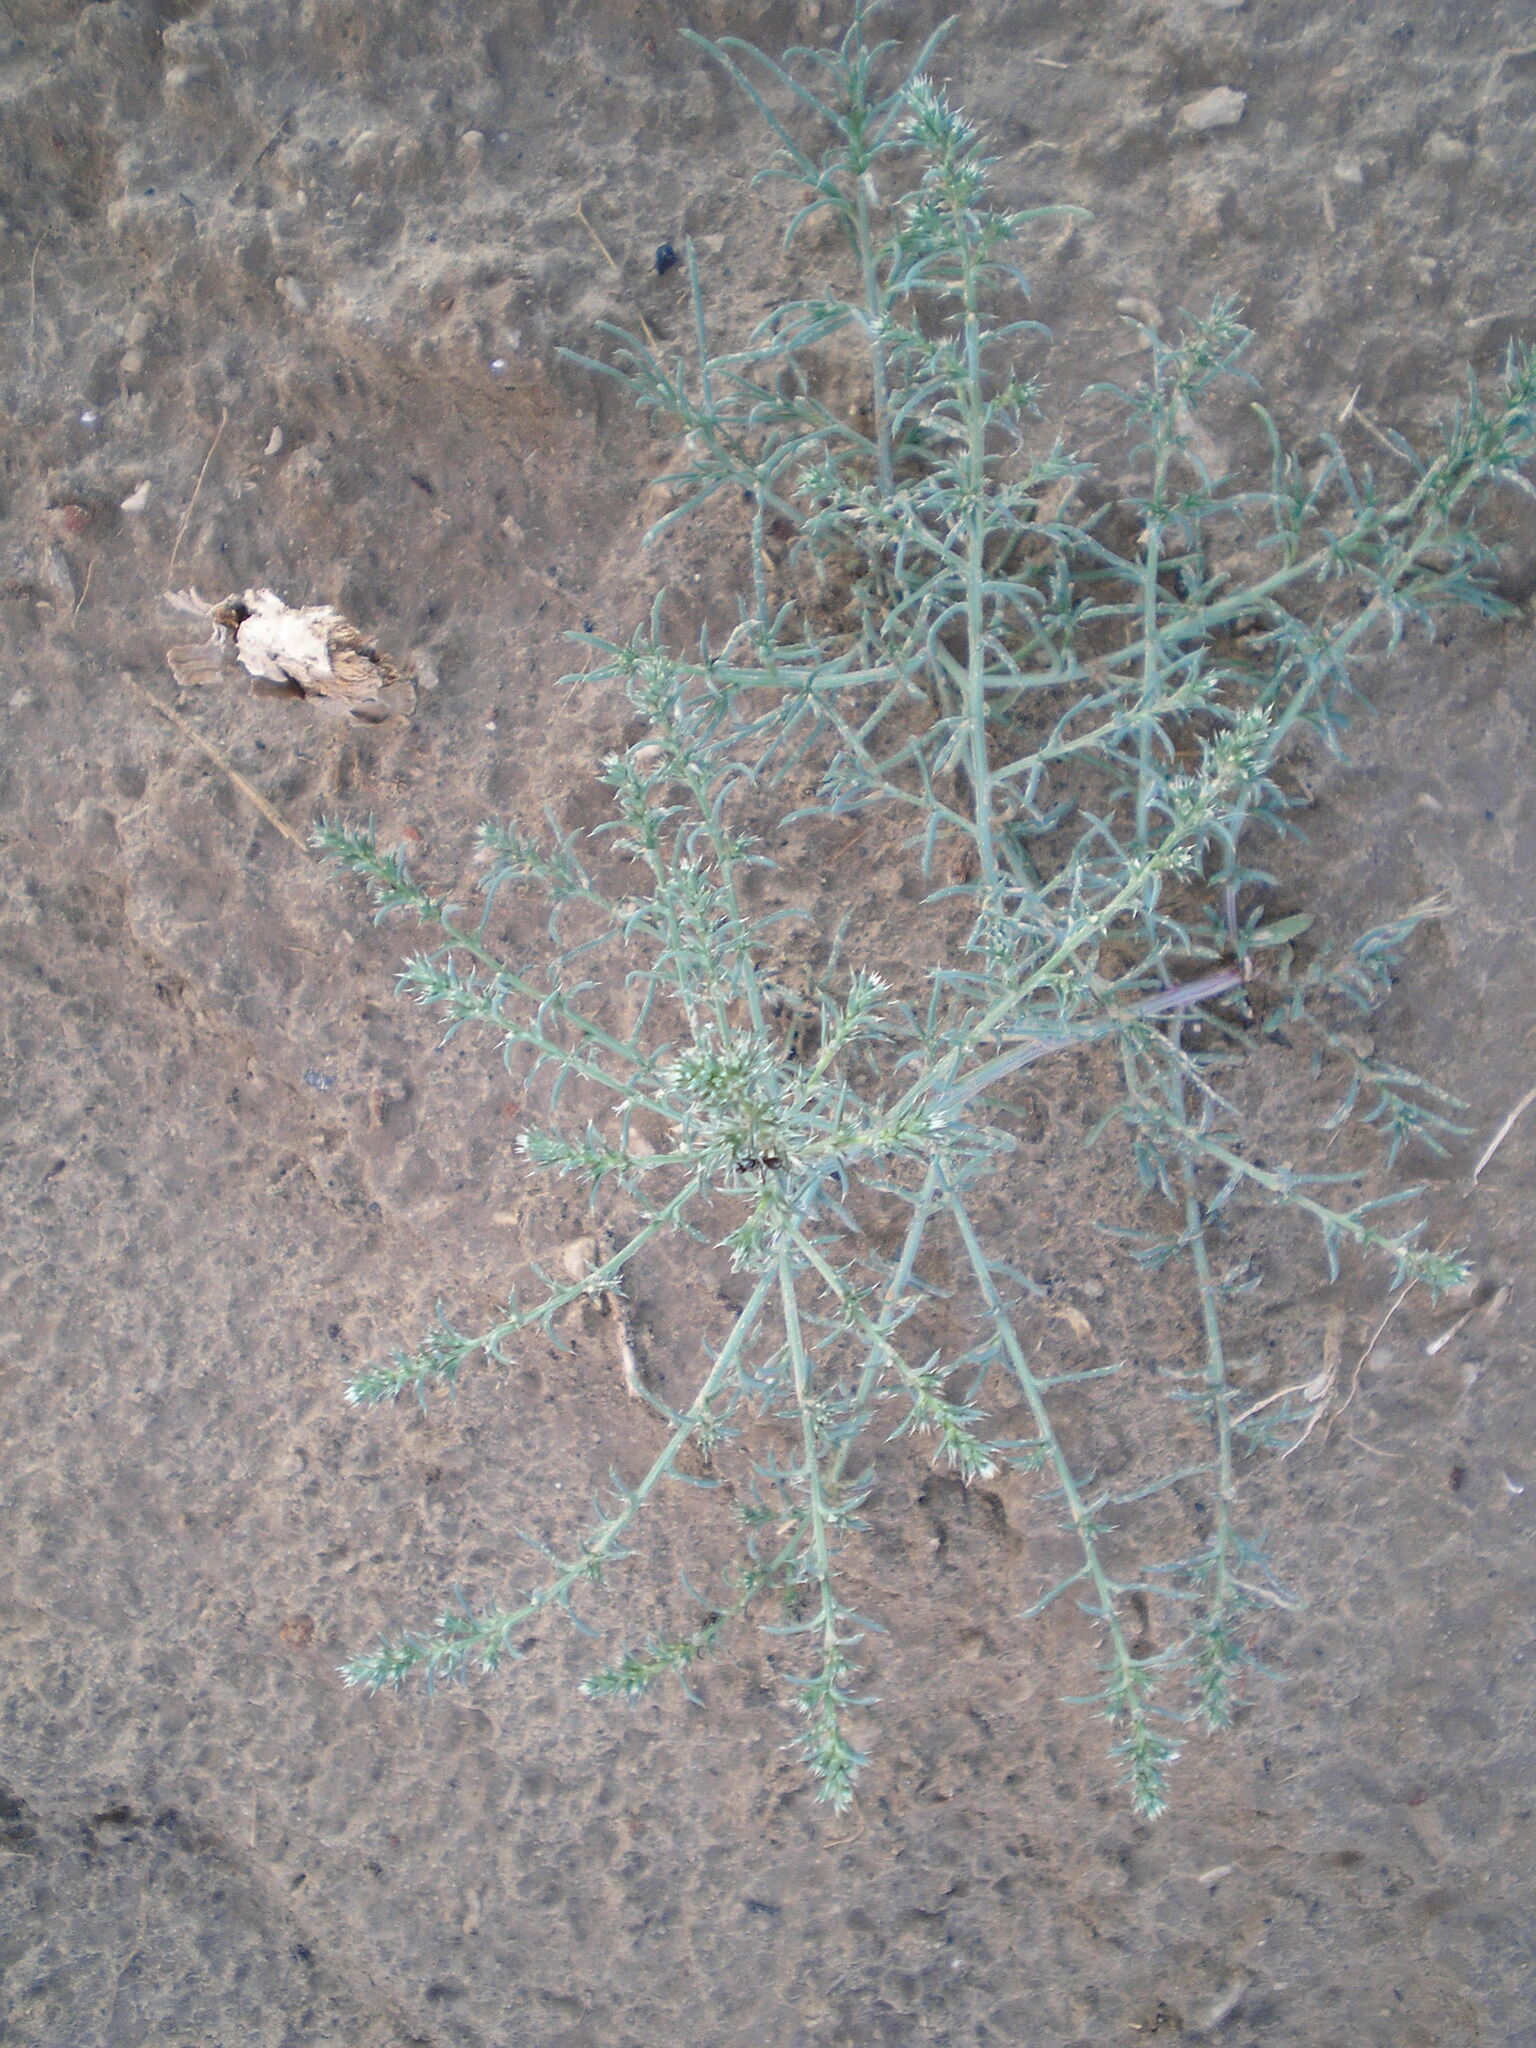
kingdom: Plantae
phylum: Tracheophyta
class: Magnoliopsida
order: Caryophyllales
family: Amaranthaceae
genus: Salsola
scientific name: Salsola tragus
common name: Prickly russian thistle
